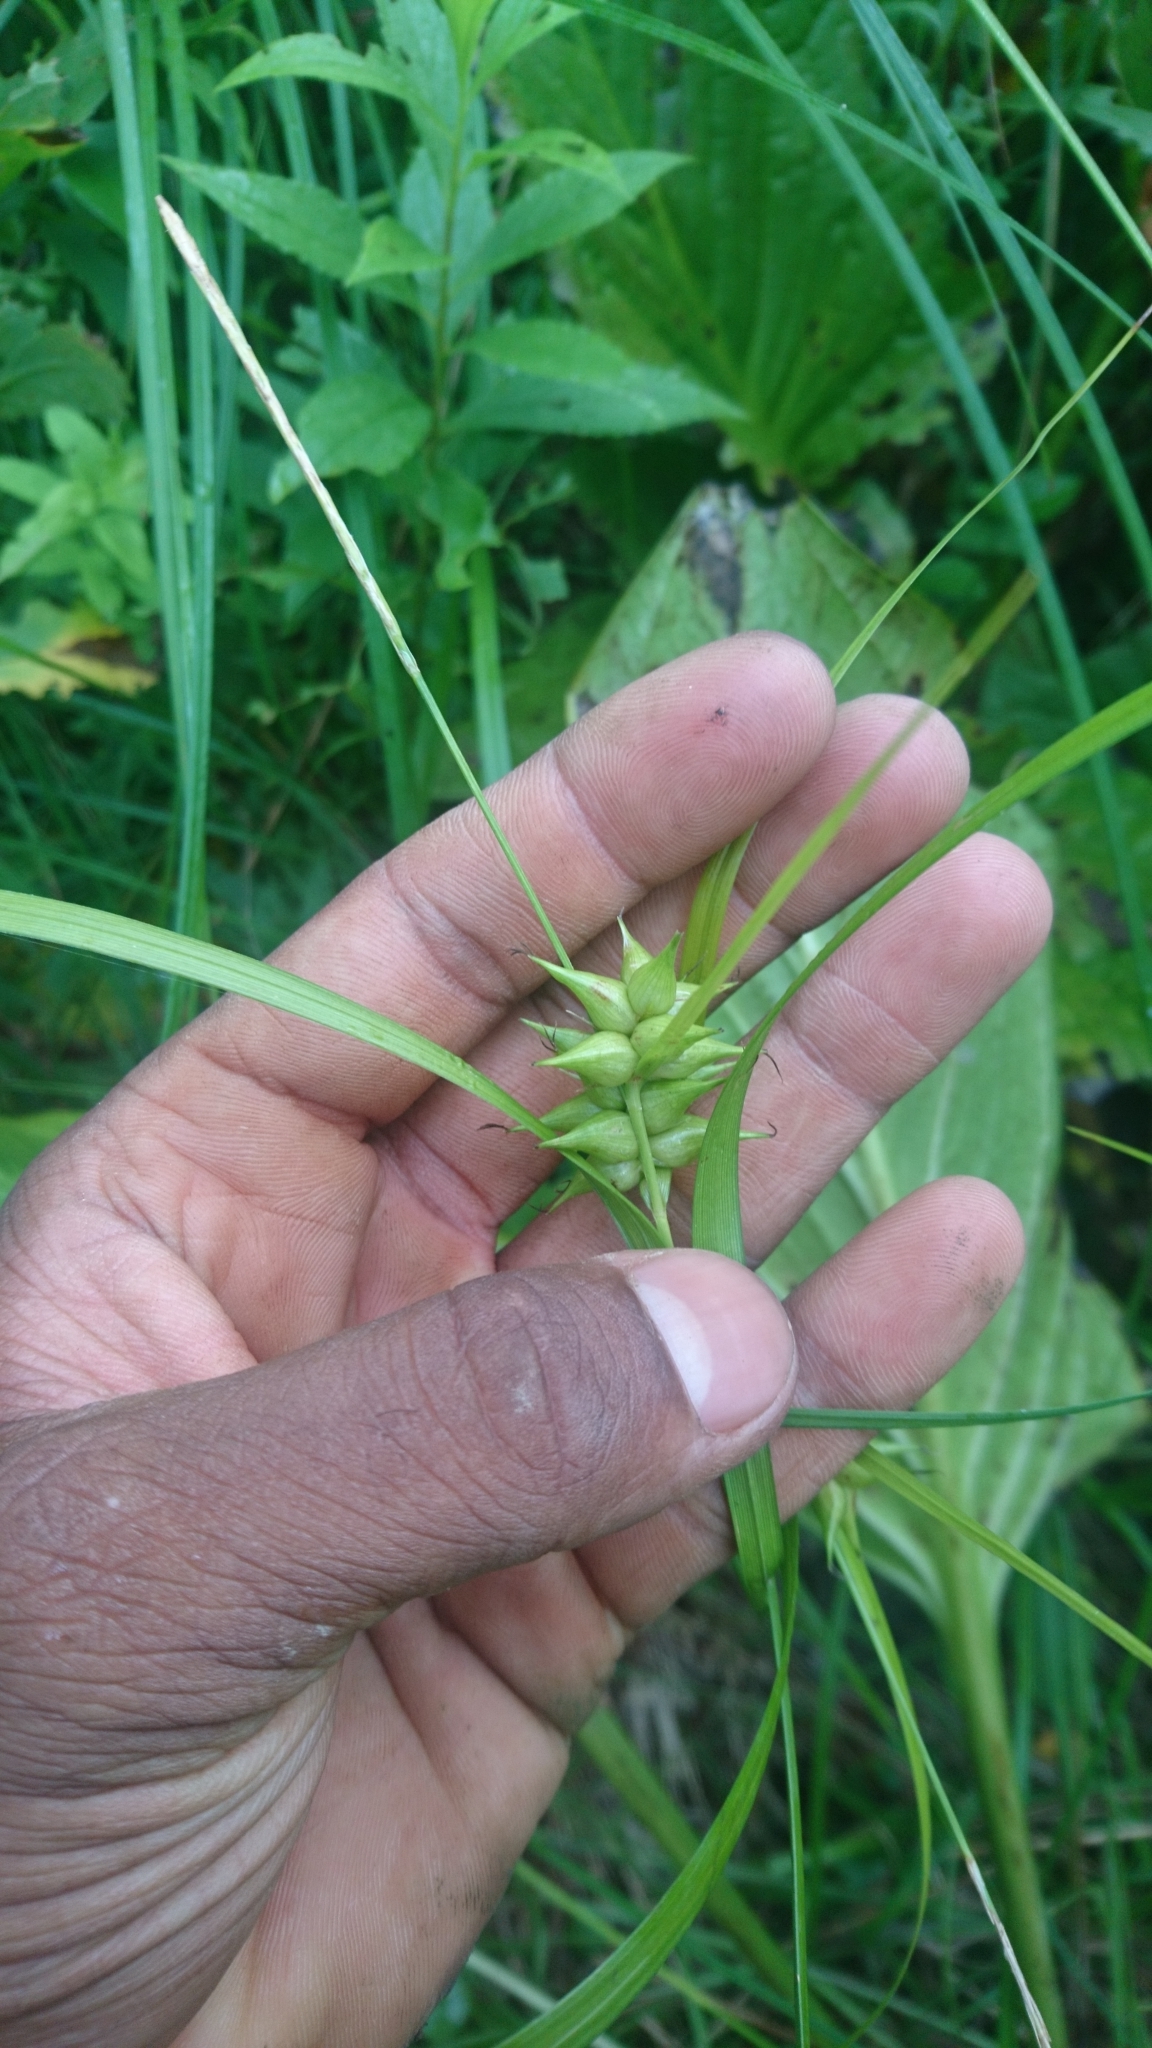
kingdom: Plantae
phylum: Tracheophyta
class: Liliopsida
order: Poales
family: Cyperaceae
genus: Carex
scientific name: Carex intumescens
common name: Greater bladder sedge
